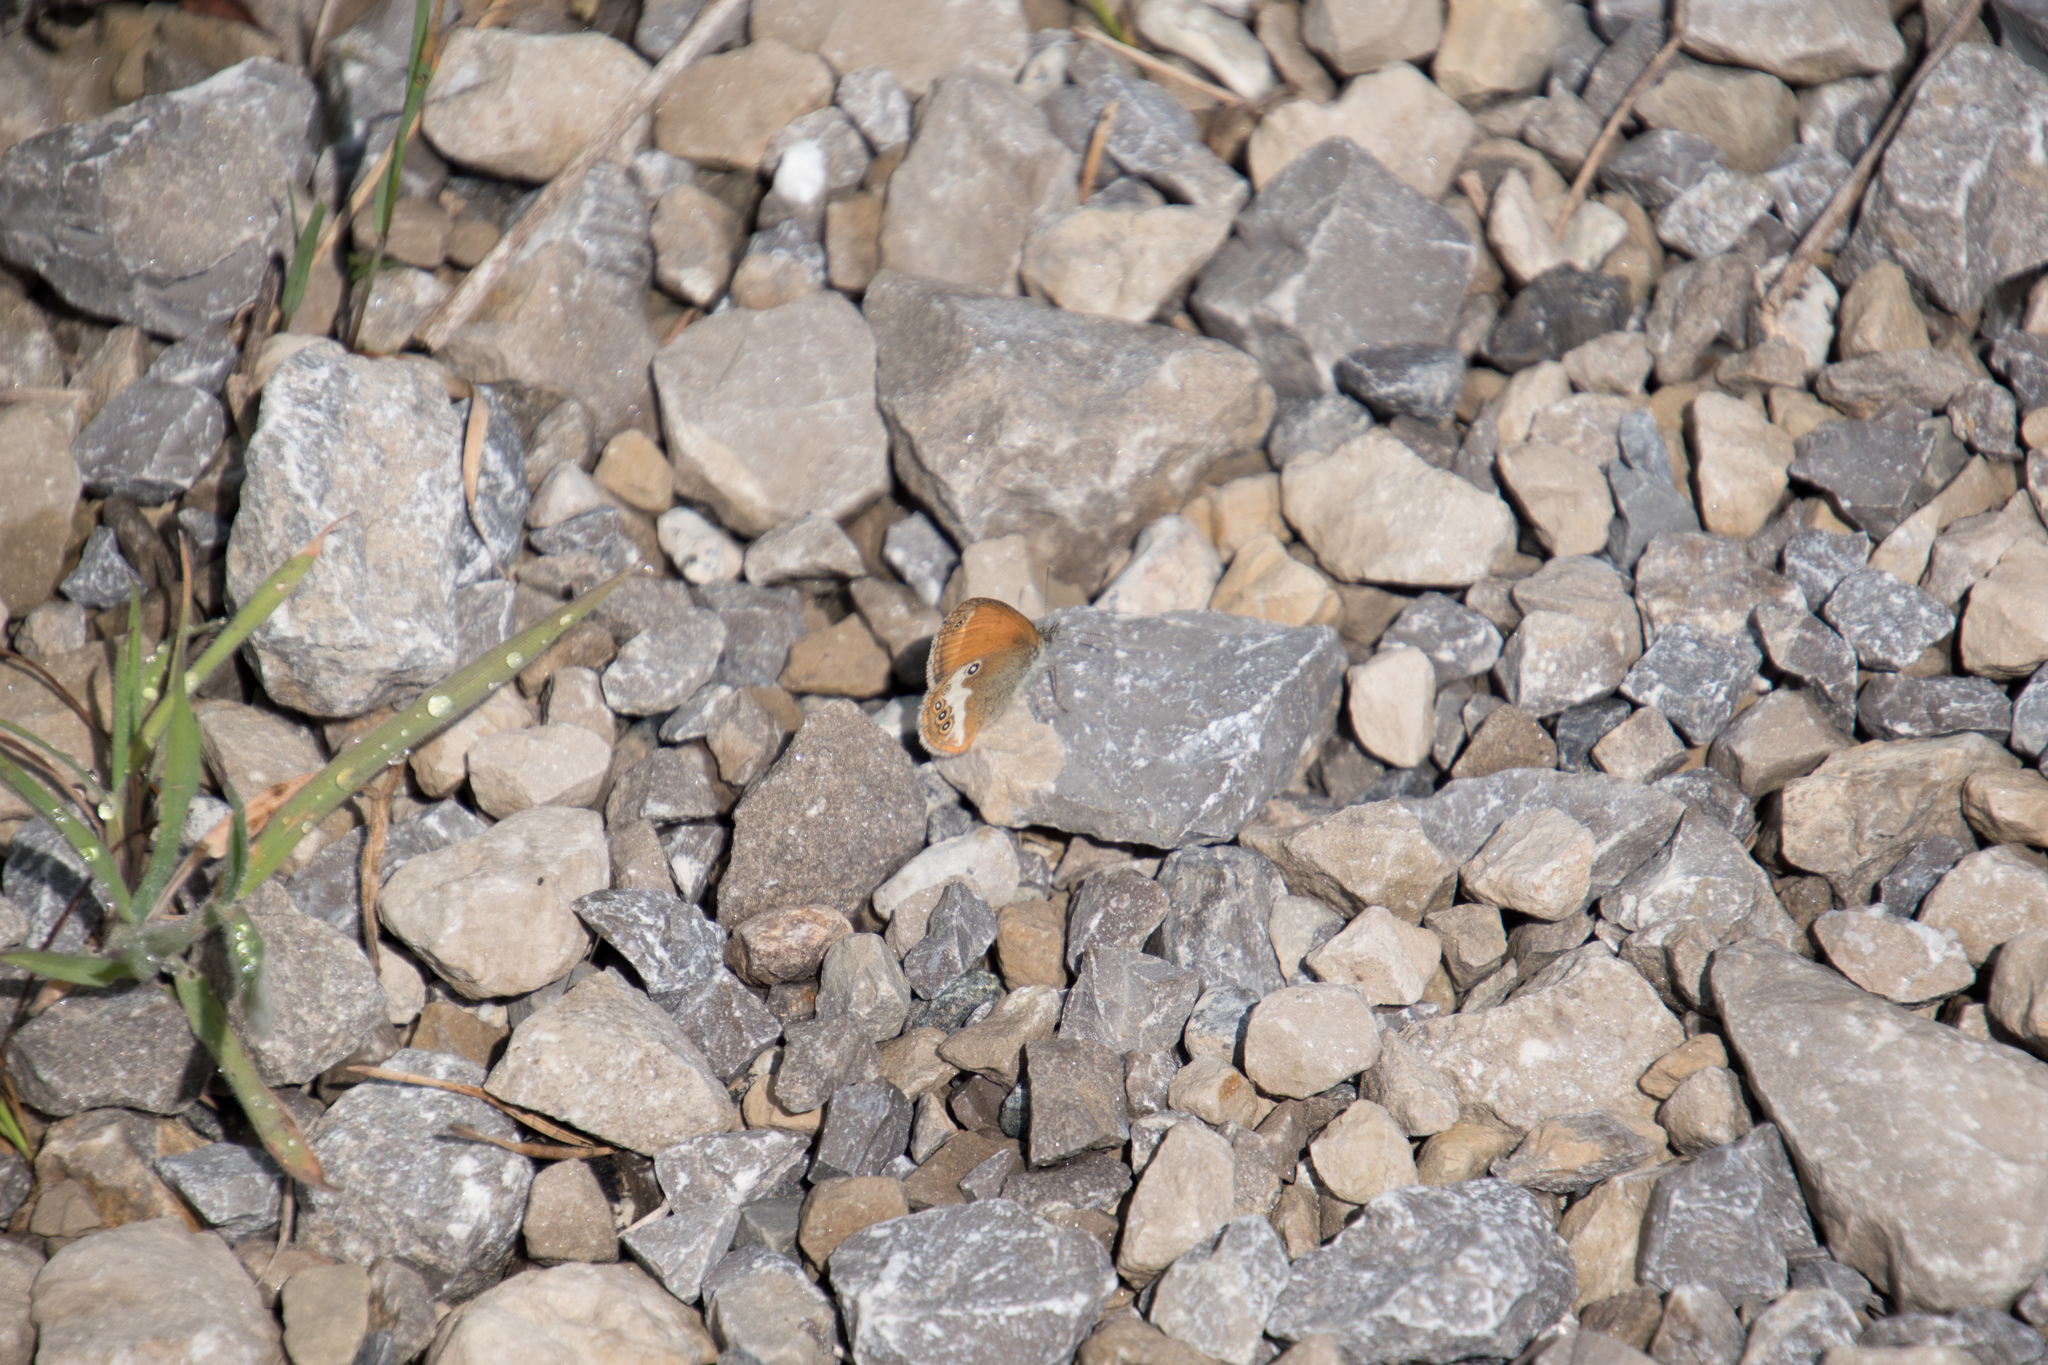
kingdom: Animalia
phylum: Arthropoda
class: Insecta
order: Lepidoptera
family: Nymphalidae
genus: Coenonympha
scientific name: Coenonympha arcania
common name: Pearly heath
